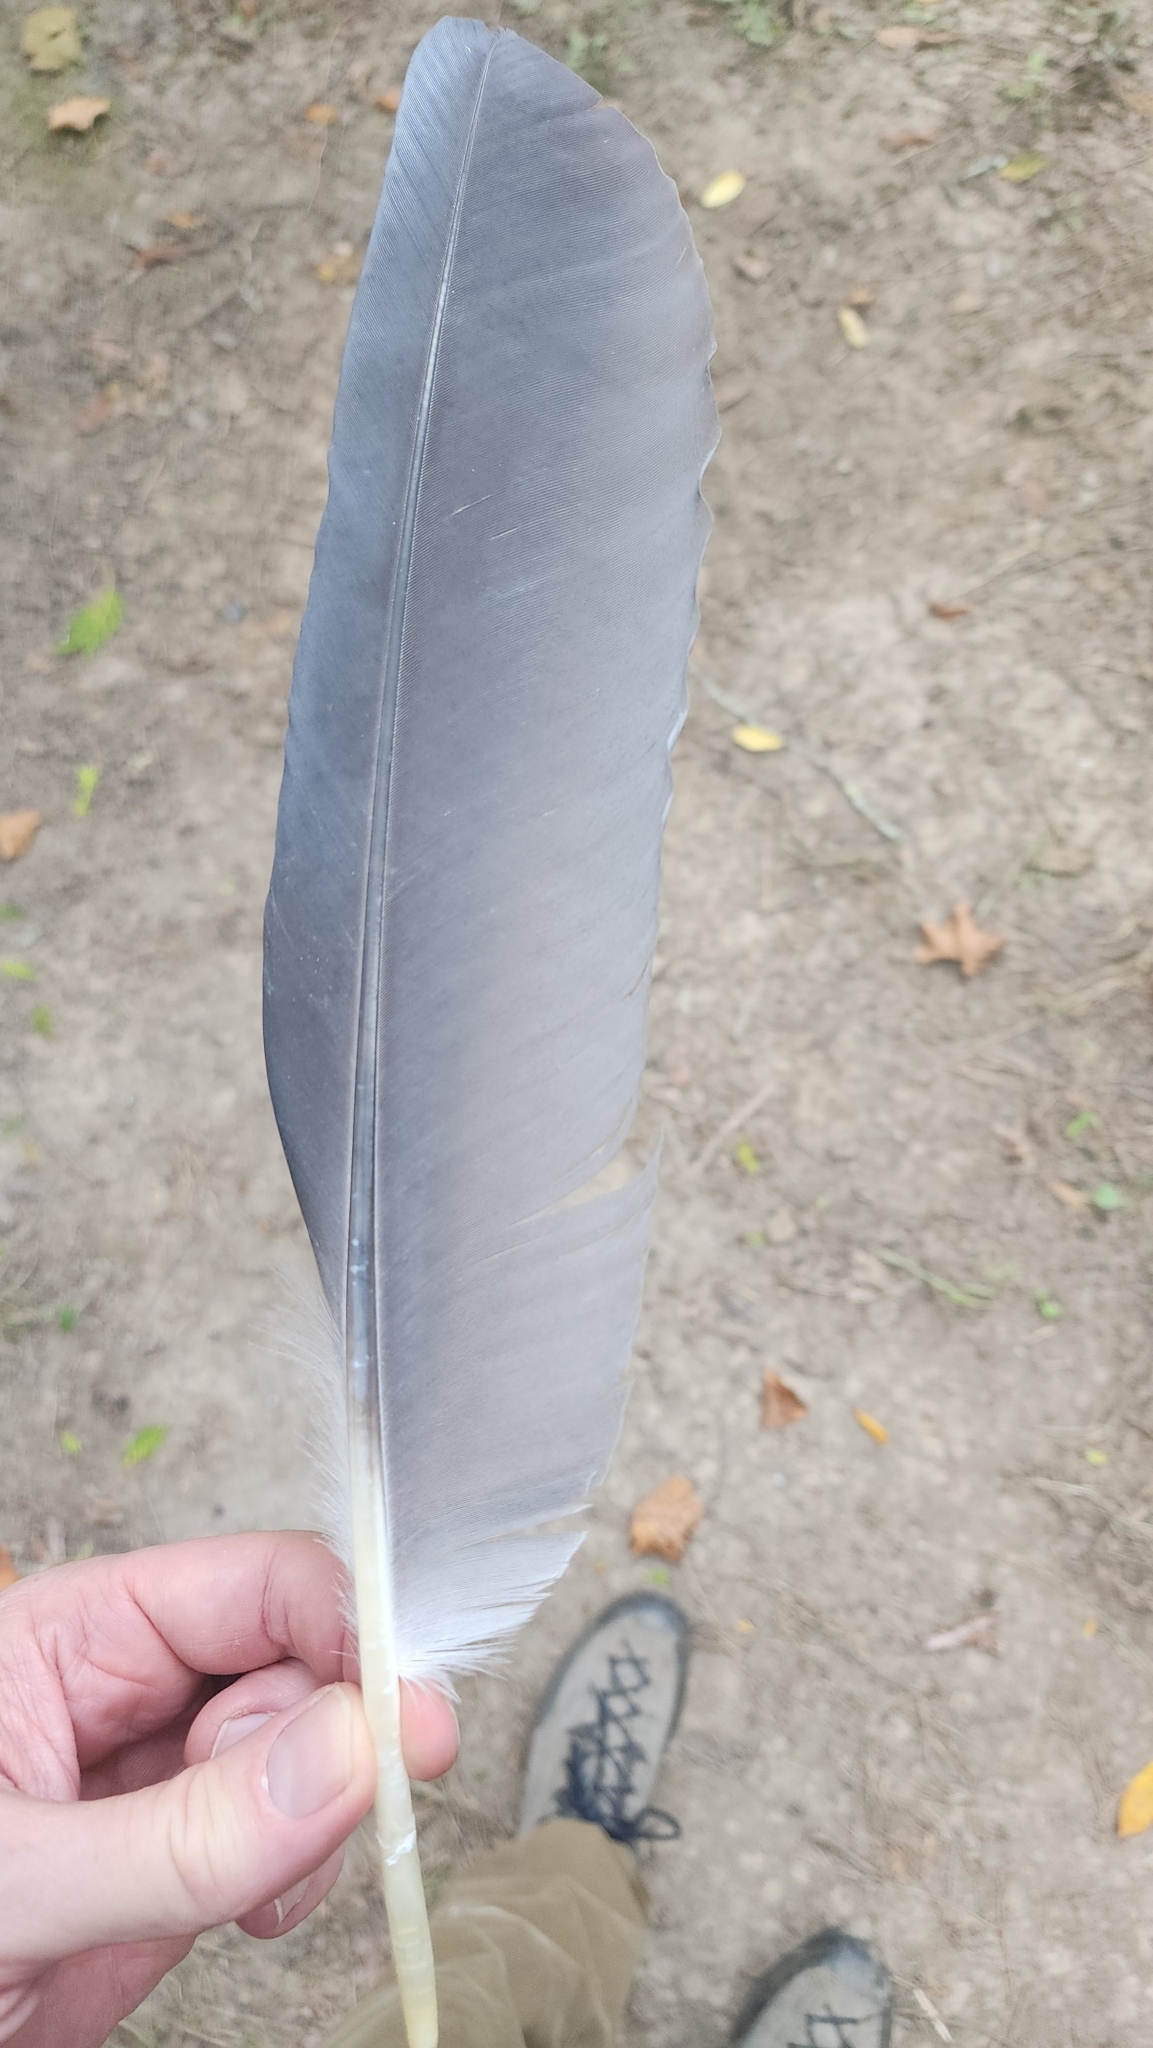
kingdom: Animalia
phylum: Chordata
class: Aves
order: Pelecaniformes
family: Ardeidae
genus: Ardea
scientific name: Ardea herodias
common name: Great blue heron
